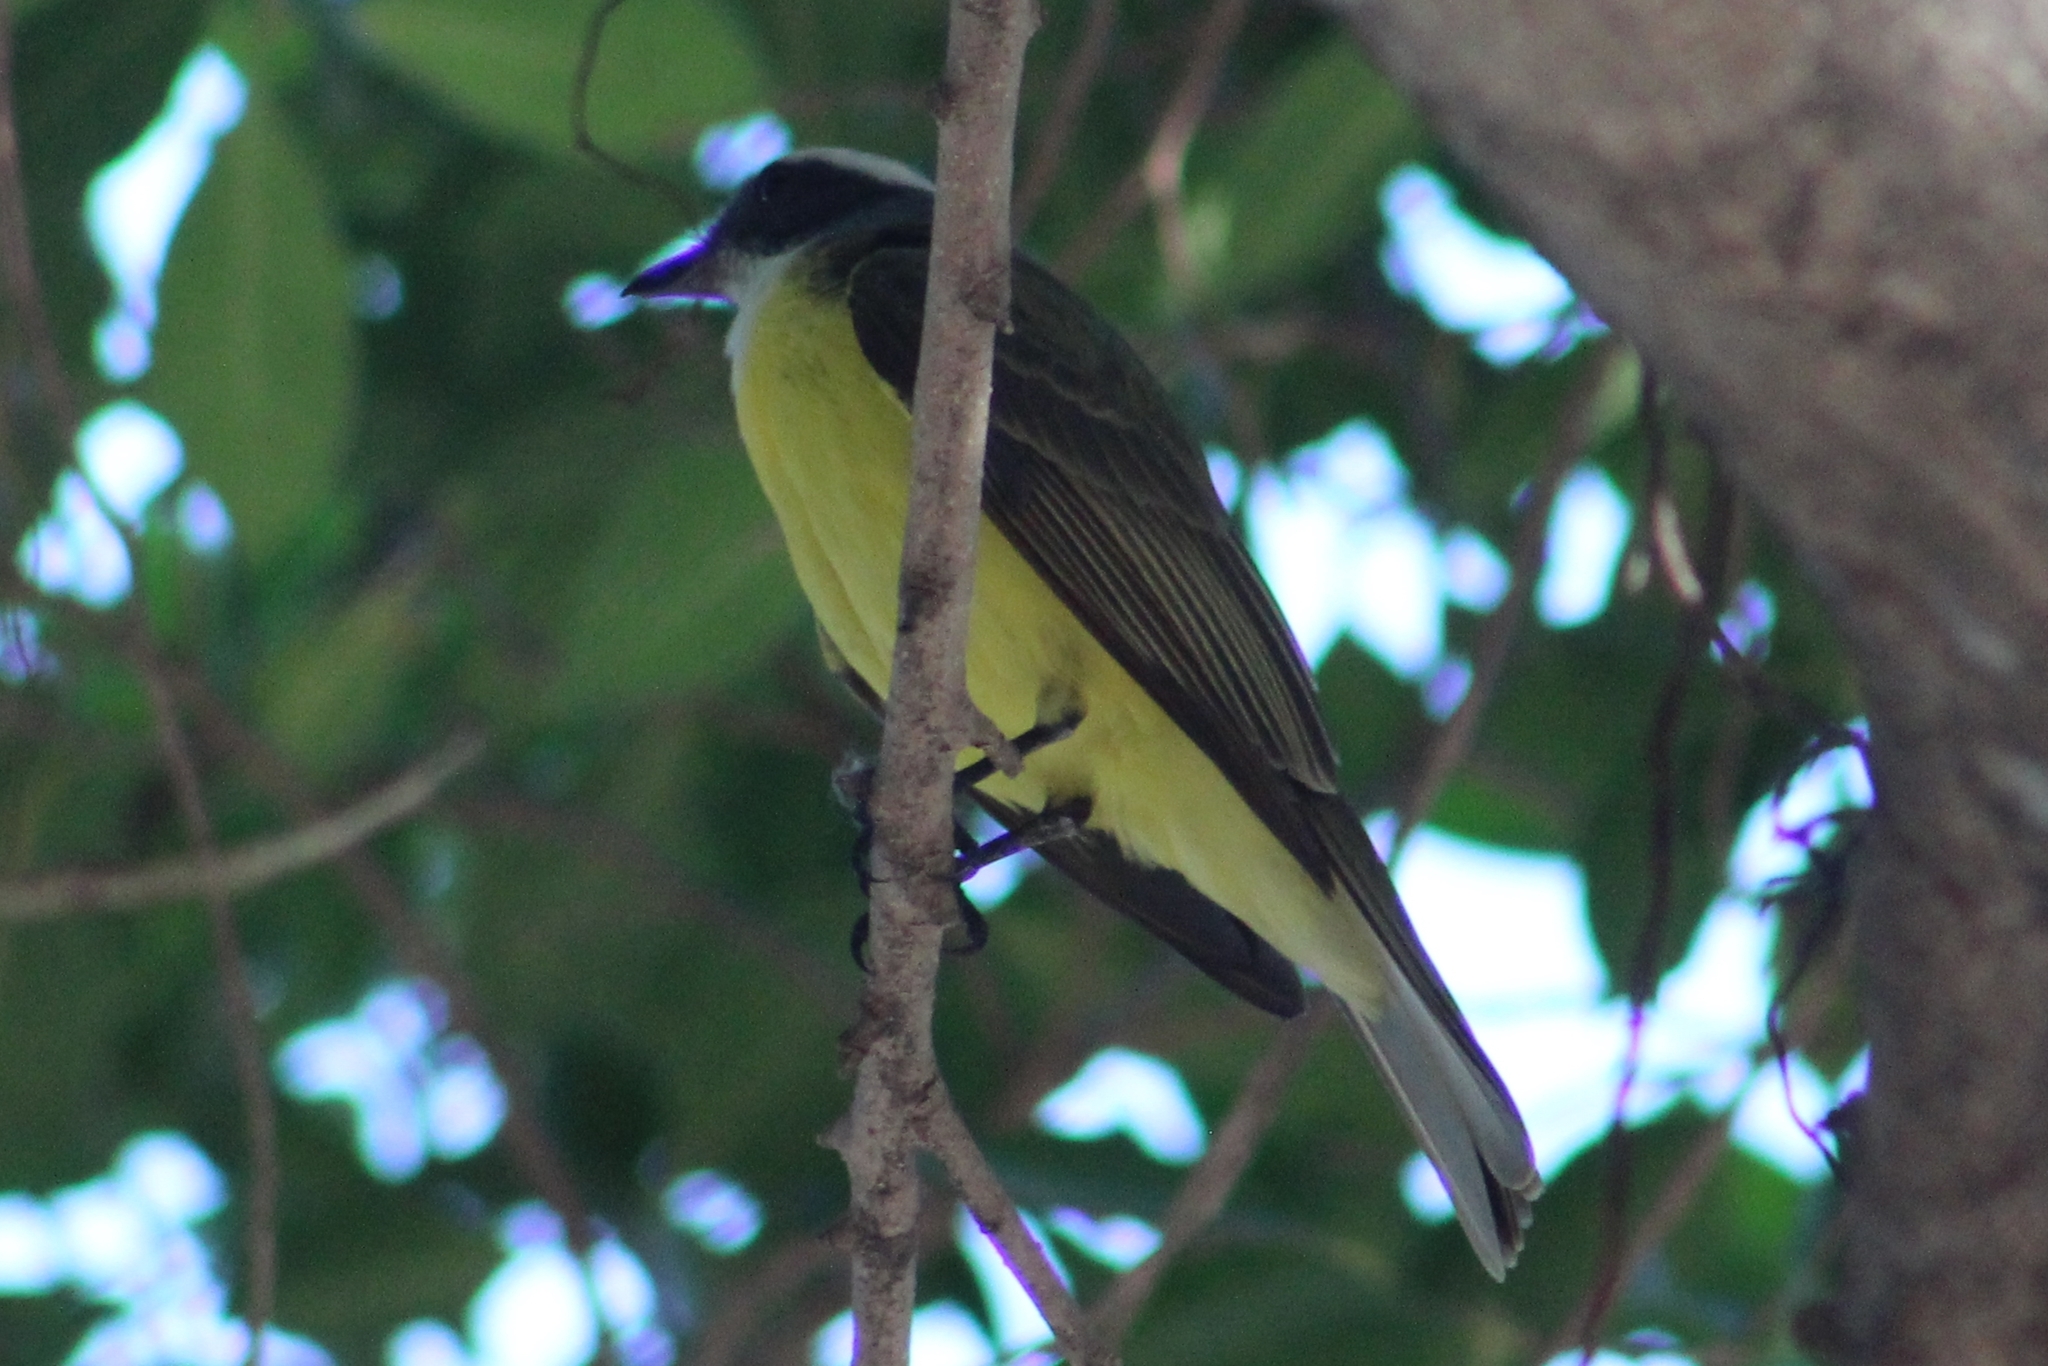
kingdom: Animalia
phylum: Chordata
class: Aves
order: Passeriformes
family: Tyrannidae
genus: Myiozetetes
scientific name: Myiozetetes similis
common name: Social flycatcher
